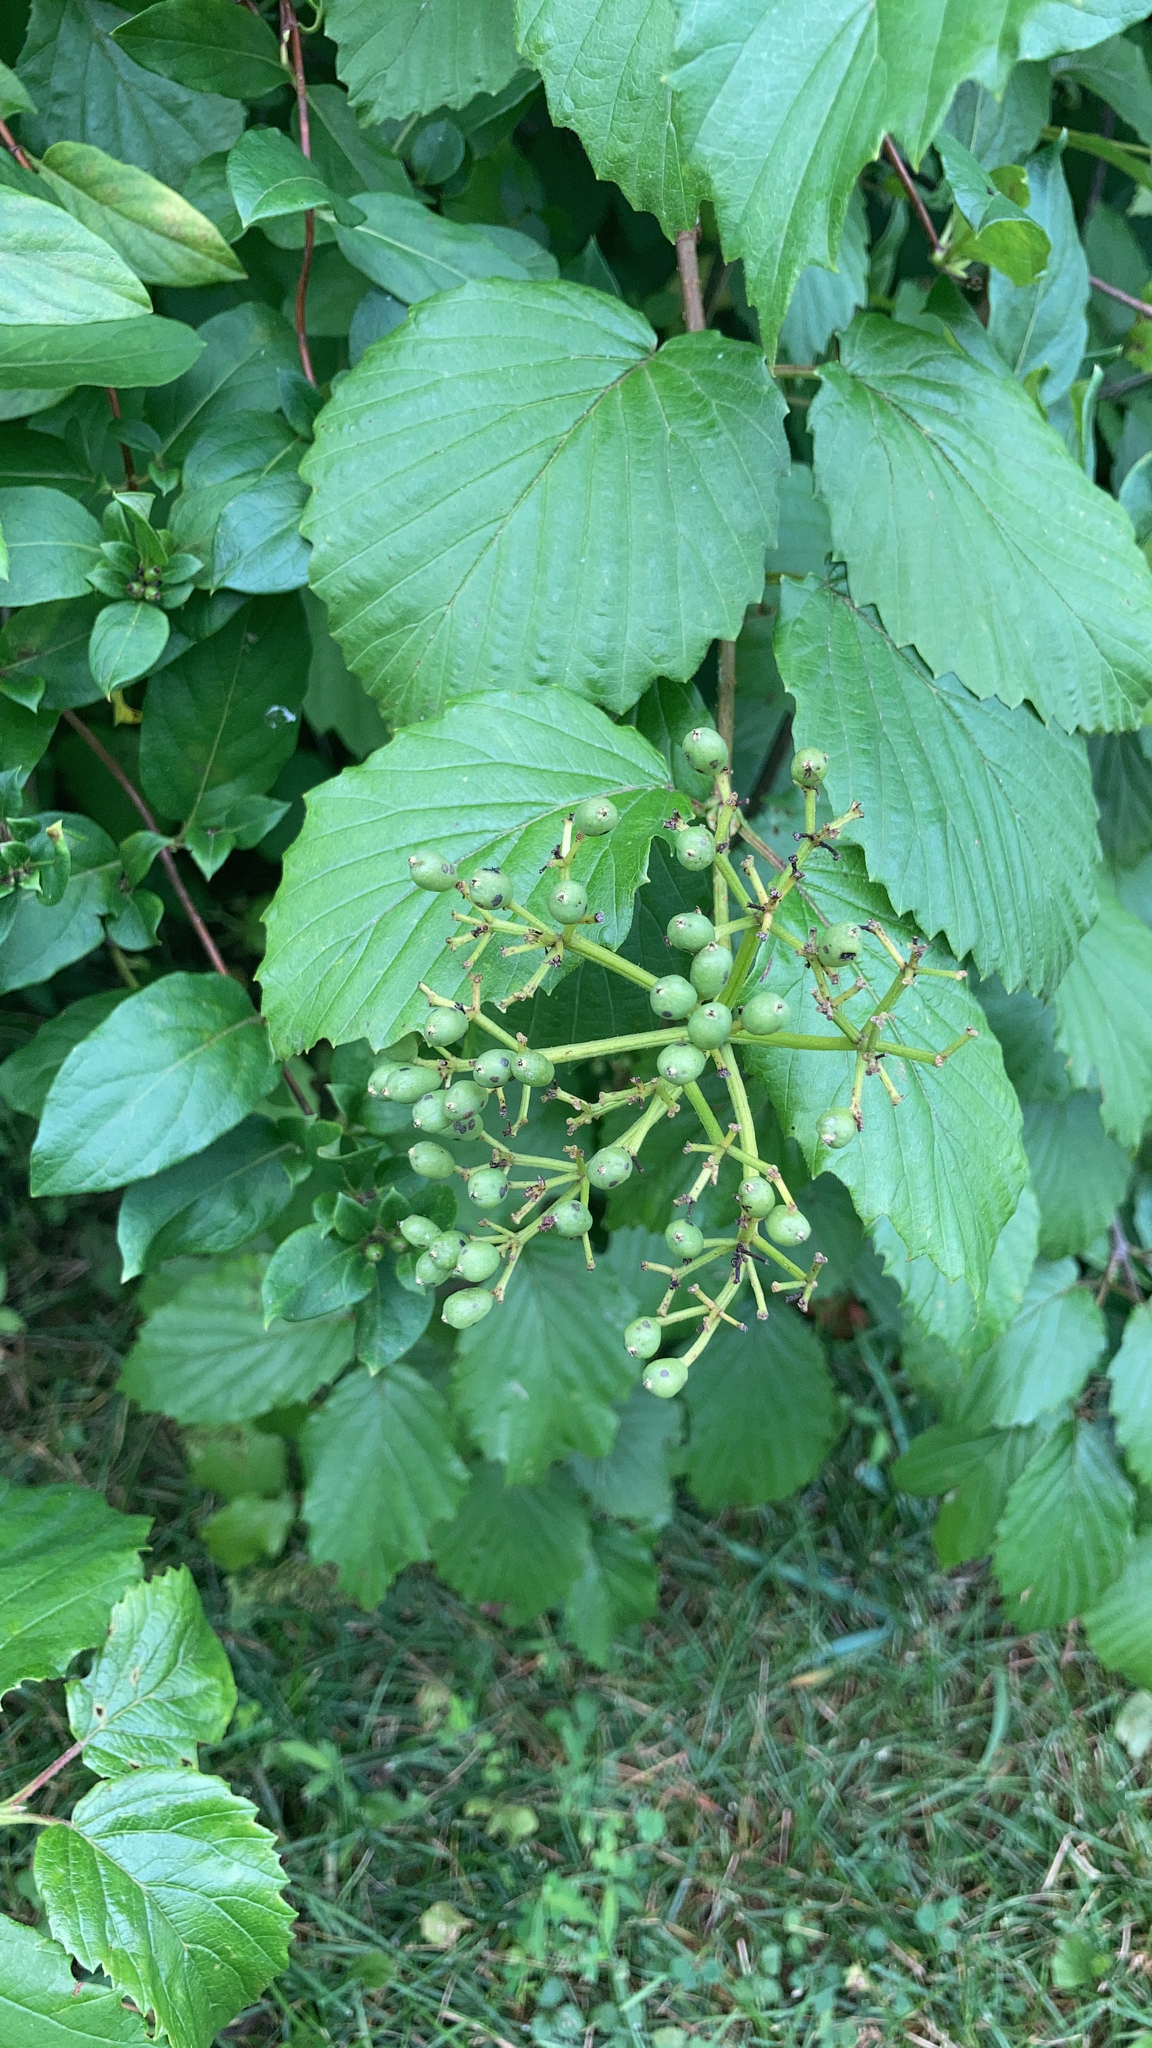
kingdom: Plantae
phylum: Tracheophyta
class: Magnoliopsida
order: Dipsacales
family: Viburnaceae
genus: Viburnum
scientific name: Viburnum dentatum
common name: Arrow-wood
